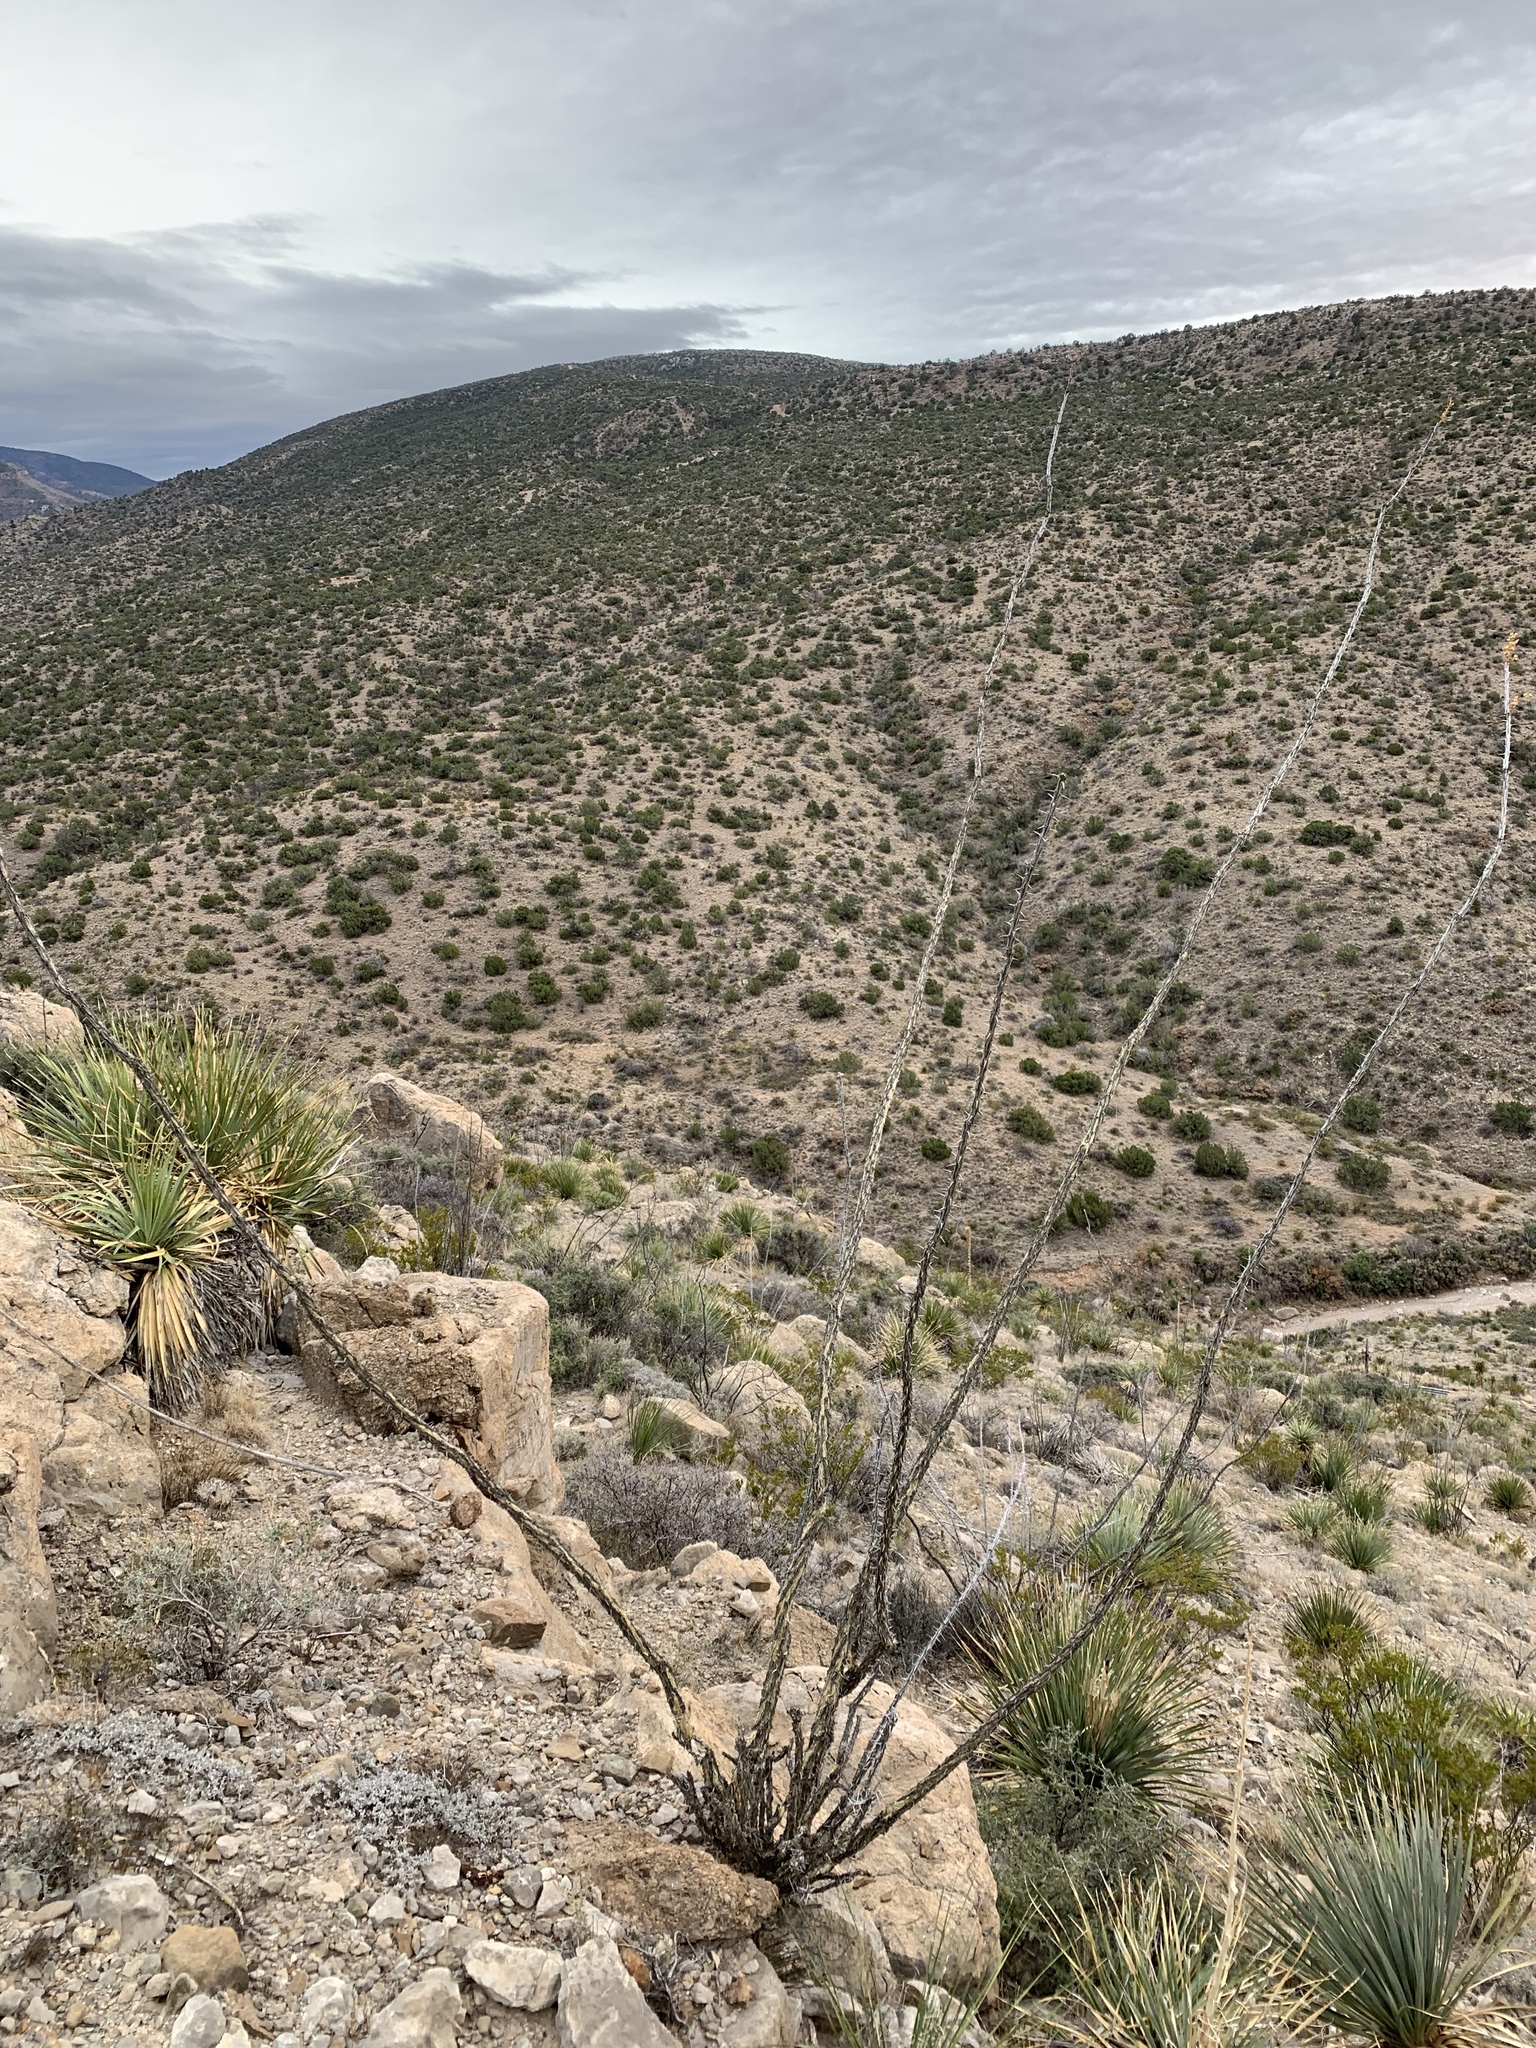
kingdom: Plantae
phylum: Tracheophyta
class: Magnoliopsida
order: Ericales
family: Fouquieriaceae
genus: Fouquieria
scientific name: Fouquieria splendens
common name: Vine-cactus
